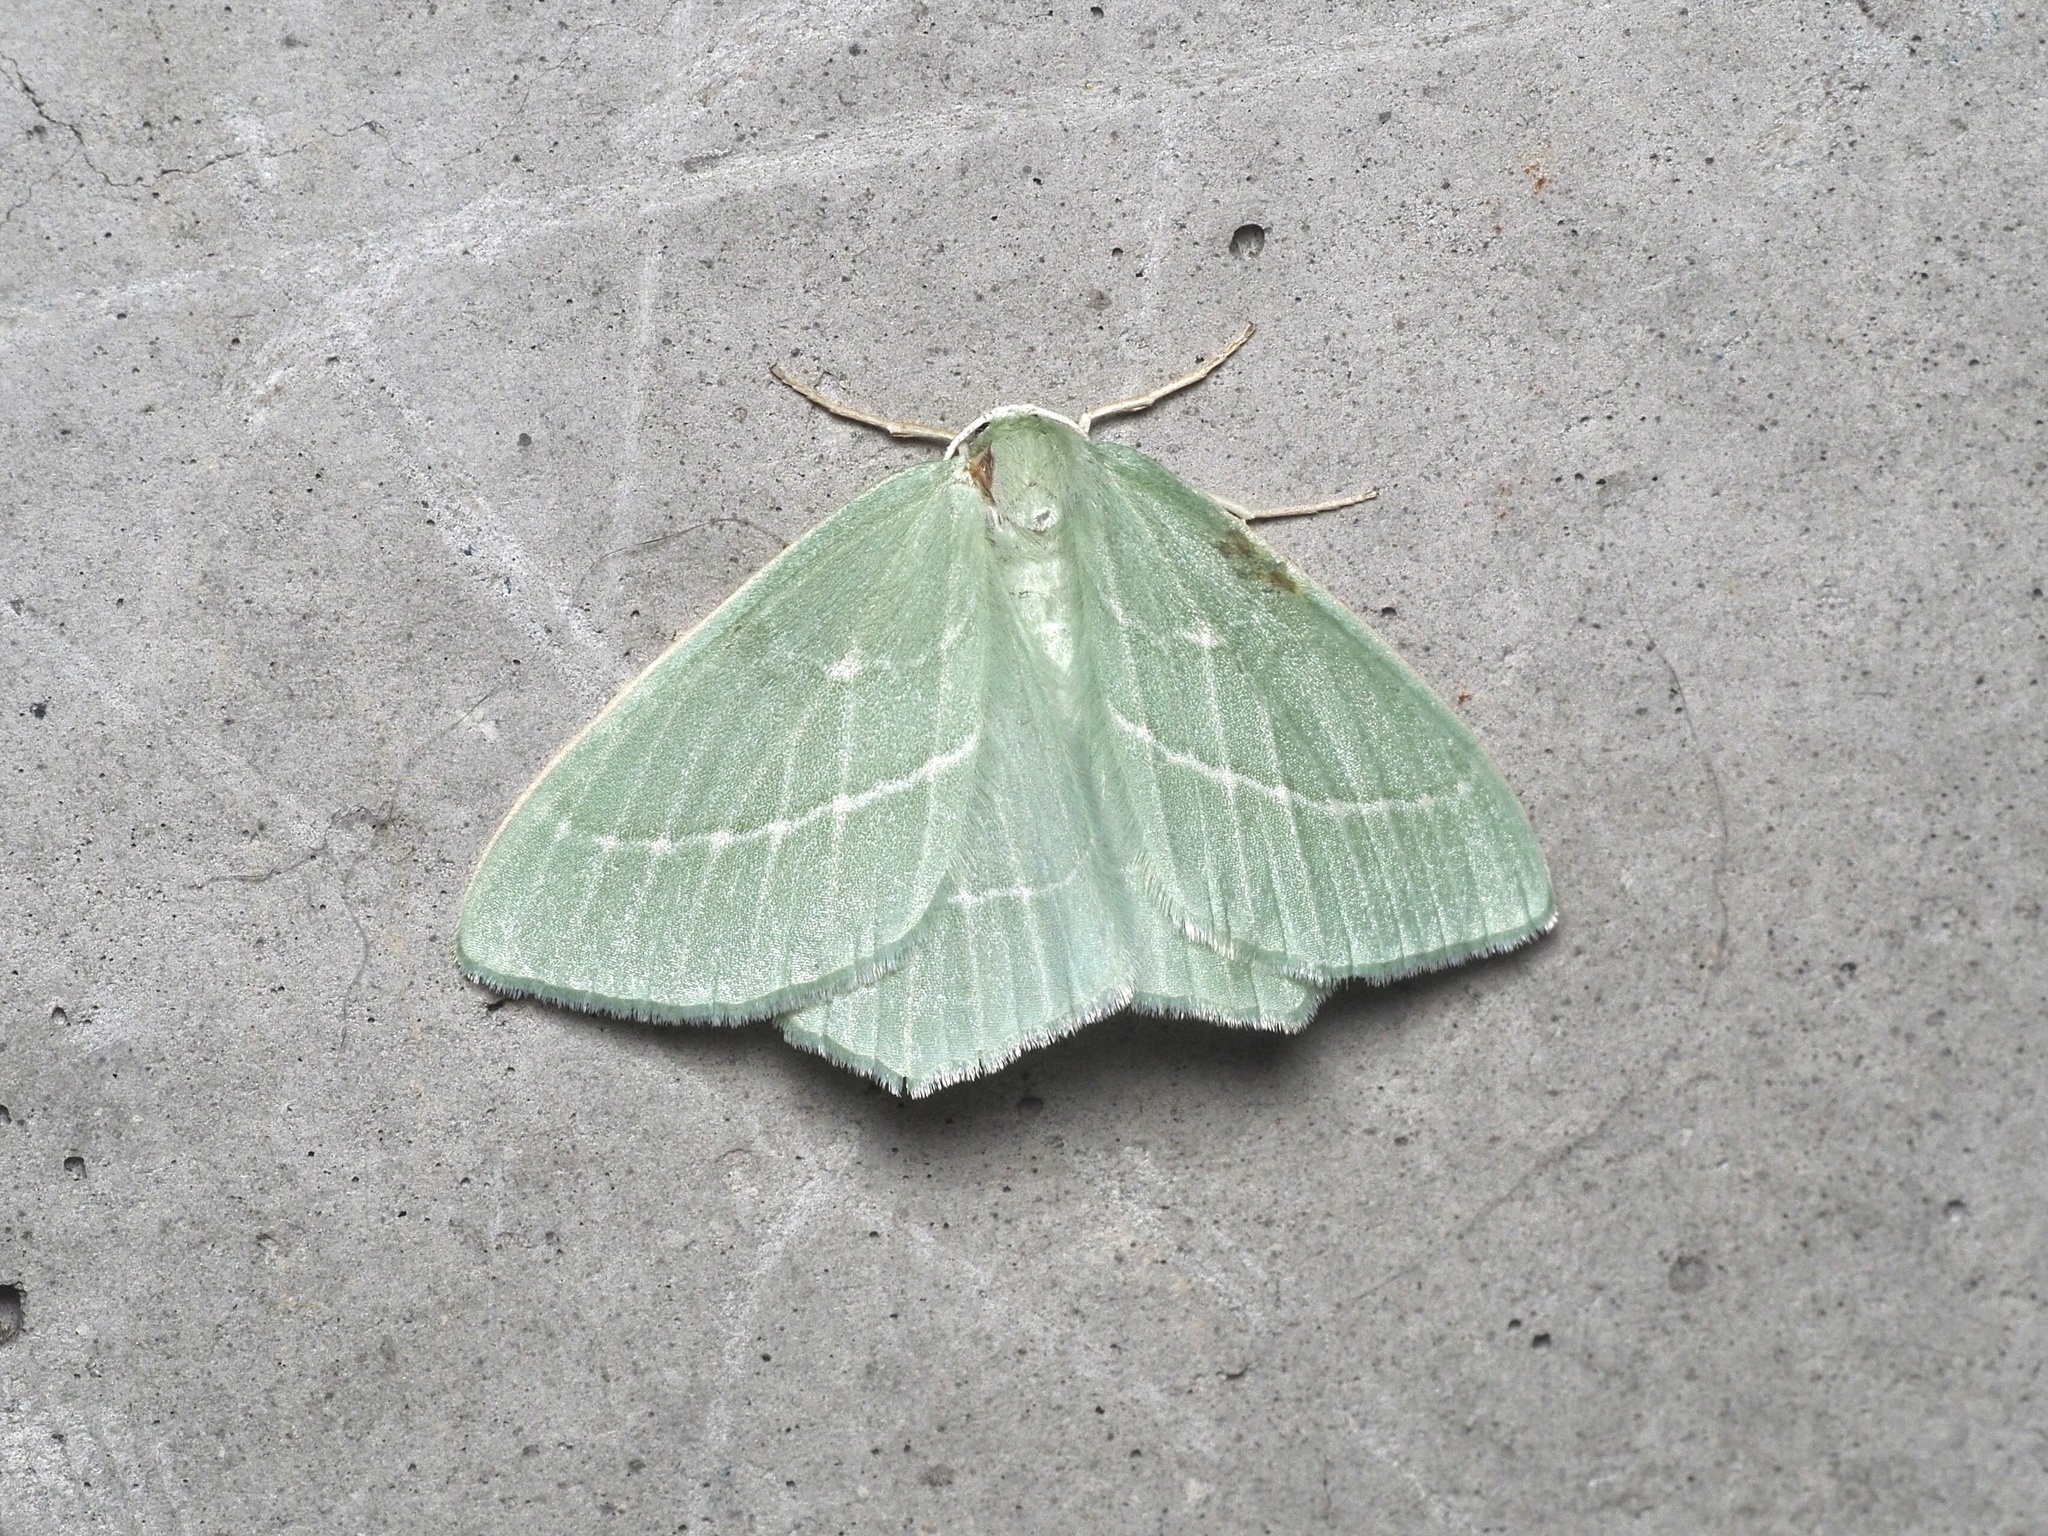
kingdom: Animalia
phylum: Arthropoda
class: Insecta
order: Lepidoptera
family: Geometridae
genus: Hemistola
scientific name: Hemistola chrysoprasaria
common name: Small emerald
